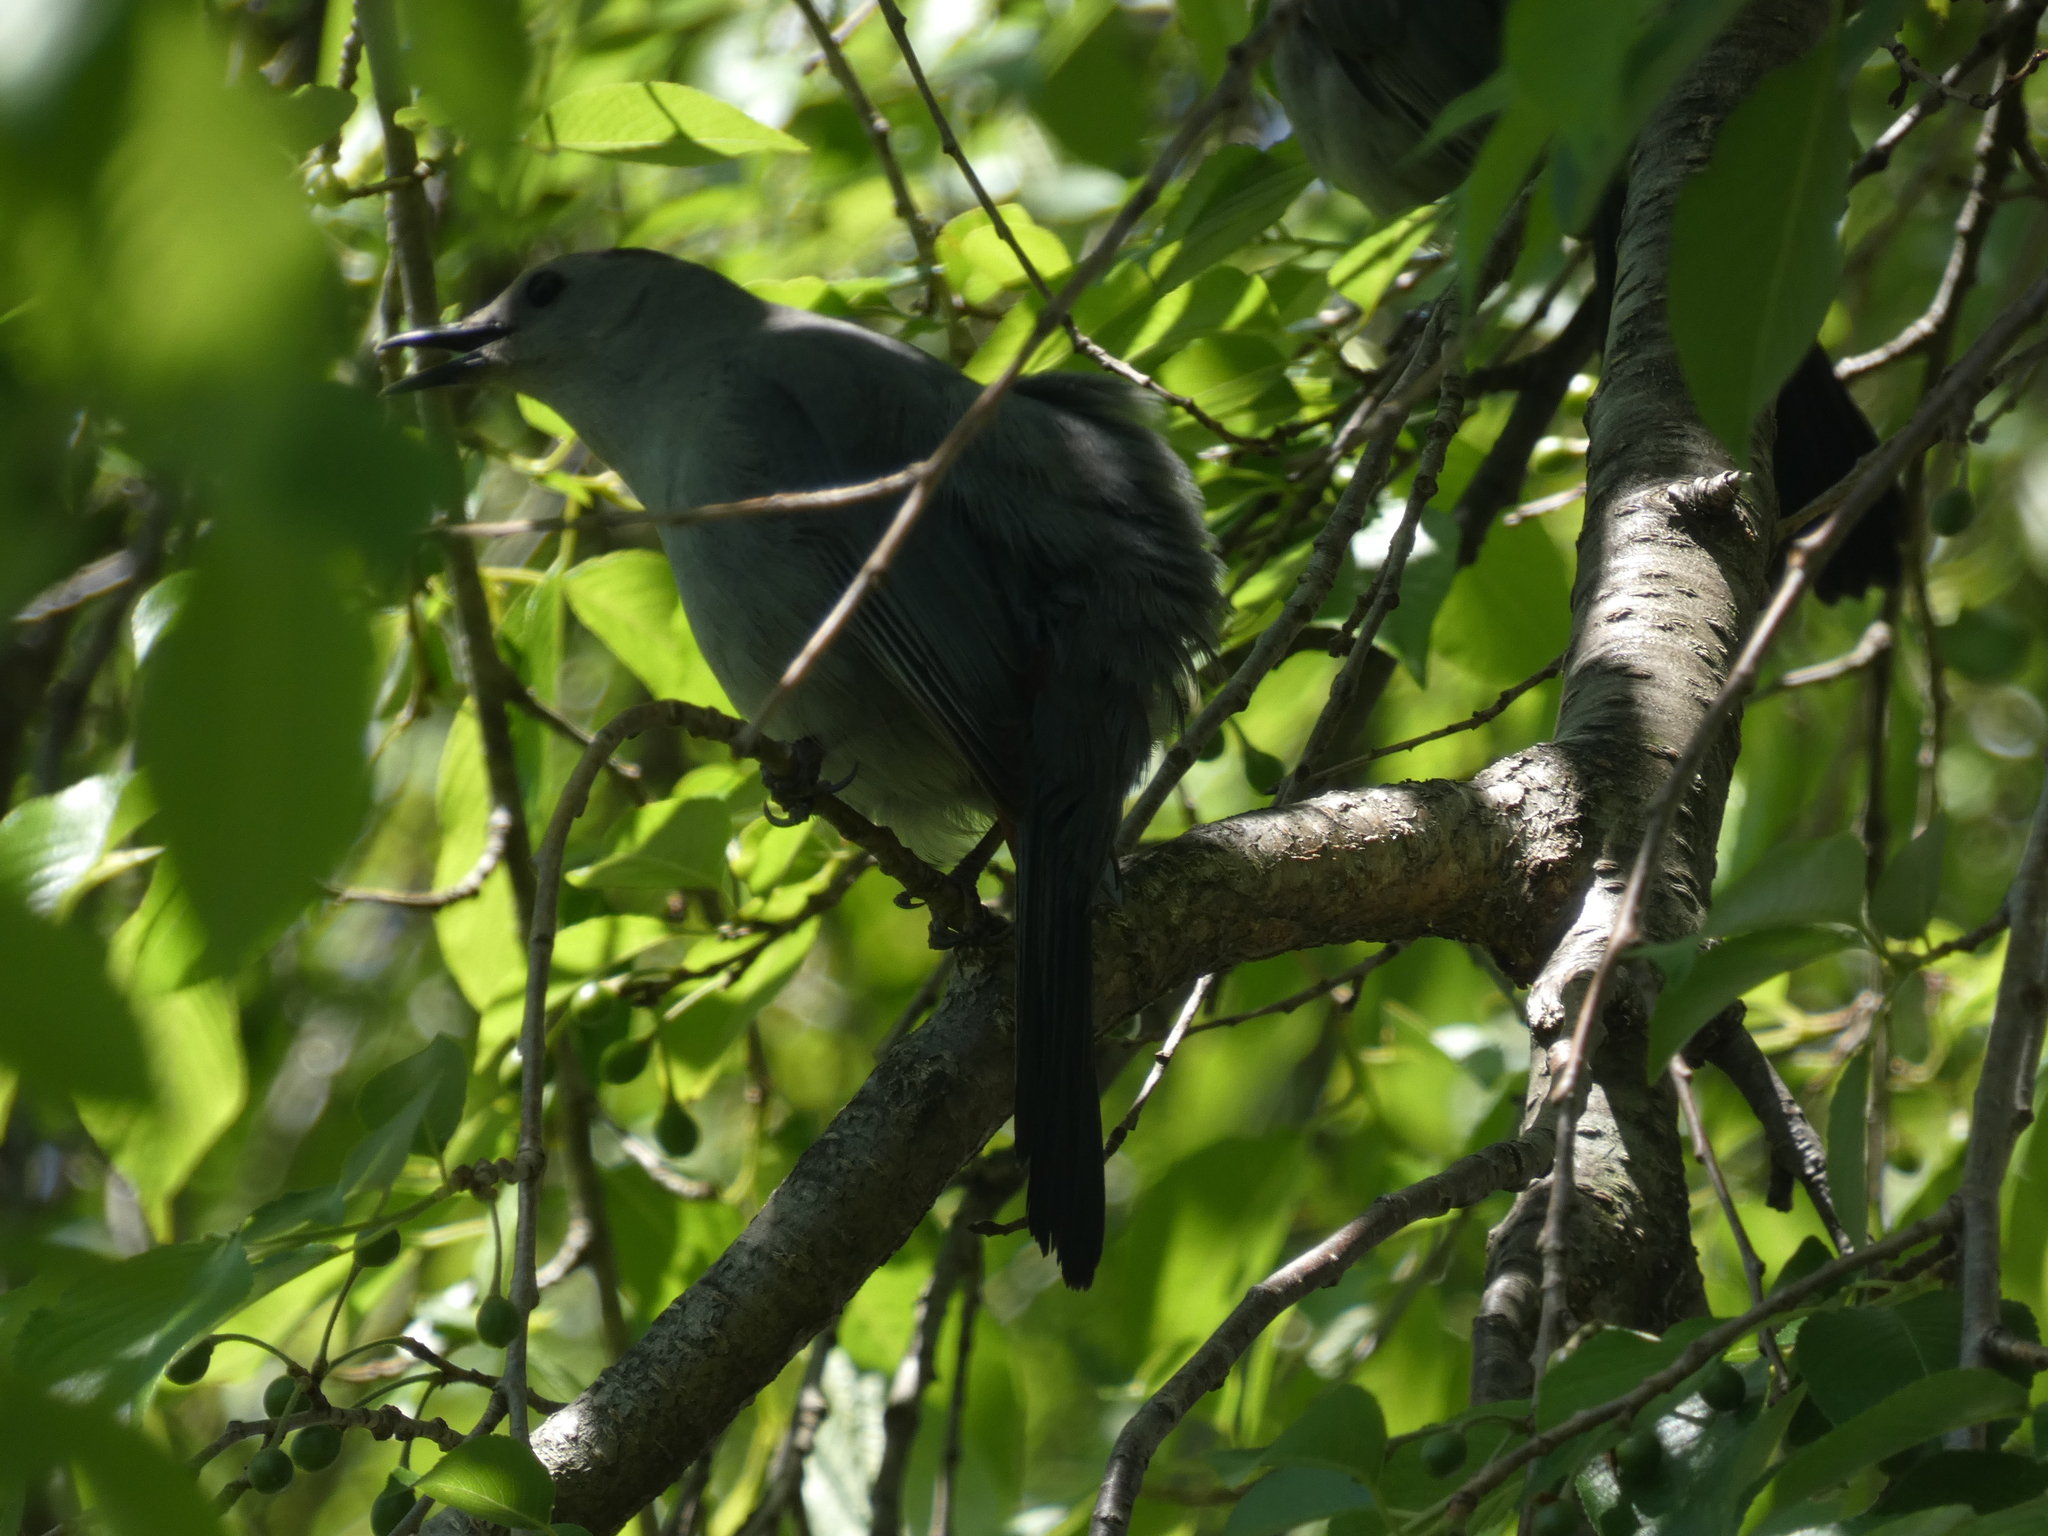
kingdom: Animalia
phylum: Chordata
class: Aves
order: Passeriformes
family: Mimidae
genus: Dumetella
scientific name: Dumetella carolinensis
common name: Gray catbird
